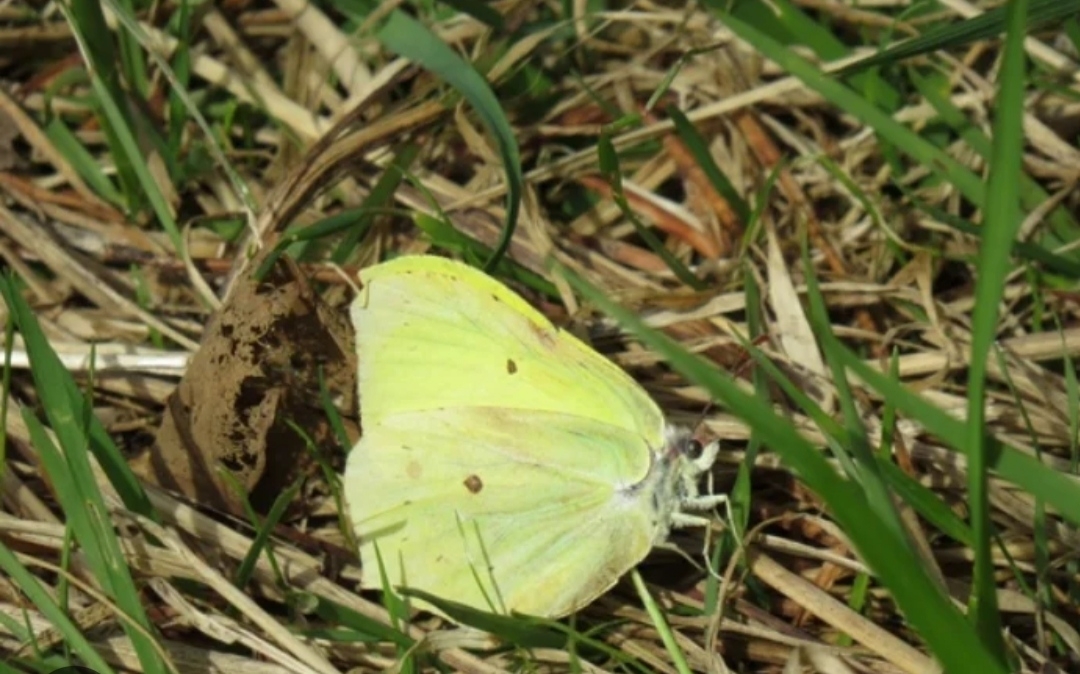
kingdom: Animalia
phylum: Arthropoda
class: Insecta
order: Lepidoptera
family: Pieridae
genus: Gonepteryx
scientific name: Gonepteryx rhamni
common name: Brimstone
